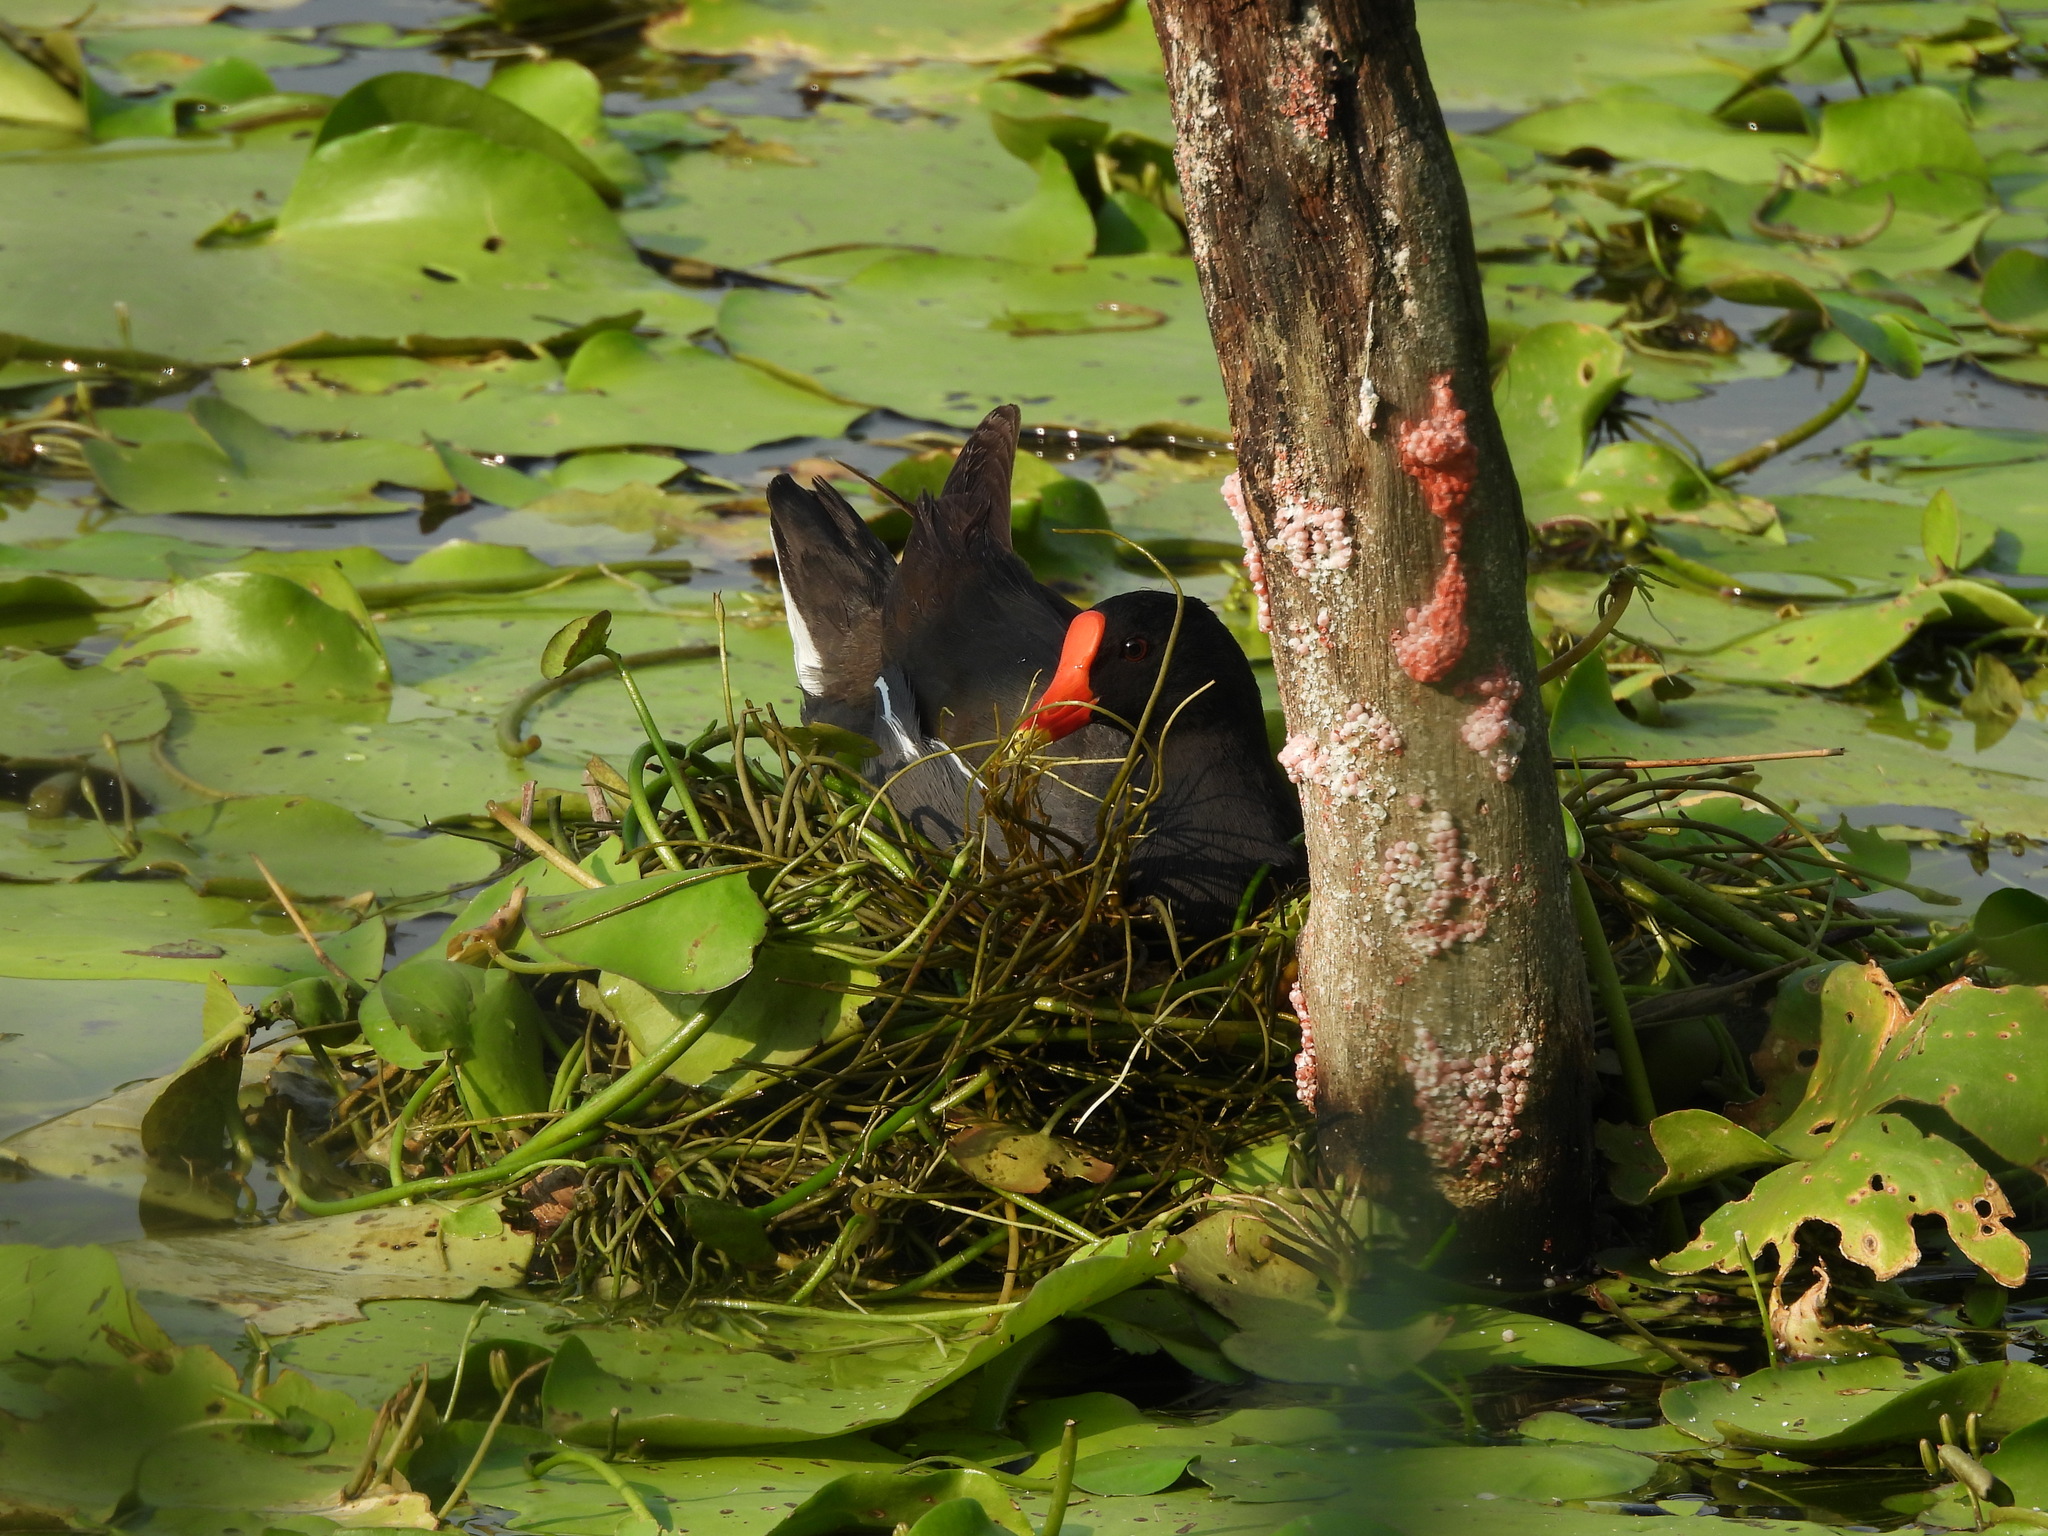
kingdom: Animalia
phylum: Chordata
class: Aves
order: Gruiformes
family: Rallidae
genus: Gallinula
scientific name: Gallinula chloropus
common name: Common moorhen
